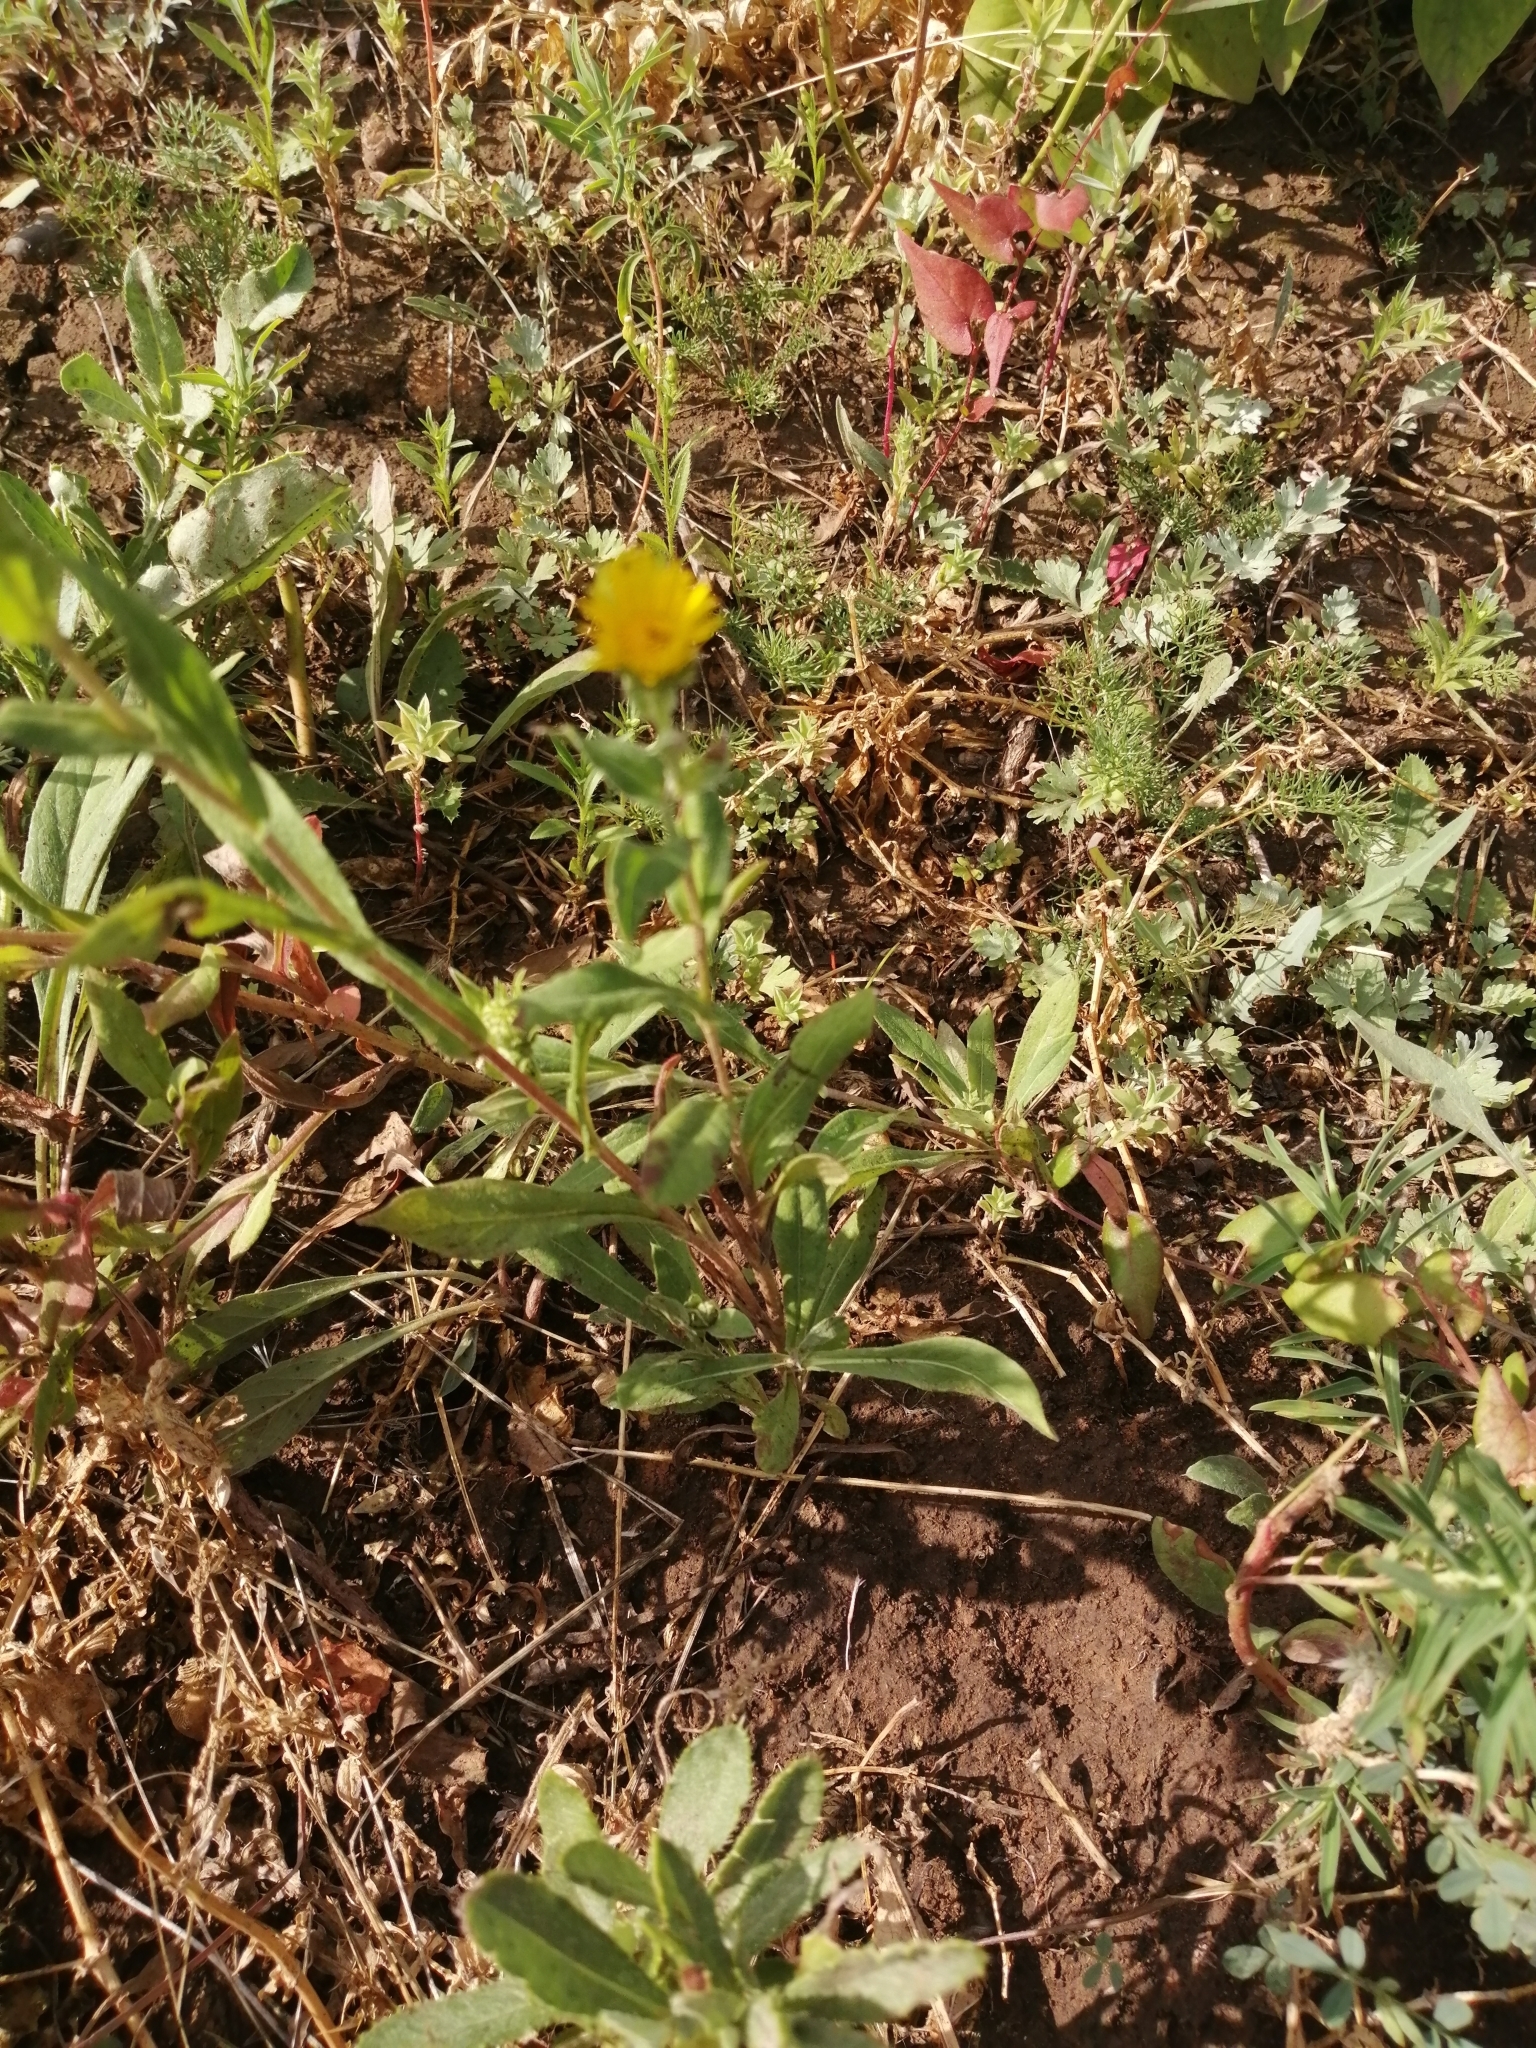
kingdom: Plantae
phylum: Tracheophyta
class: Magnoliopsida
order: Asterales
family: Asteraceae
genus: Pentanema
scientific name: Pentanema britannicum
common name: British elecampane
